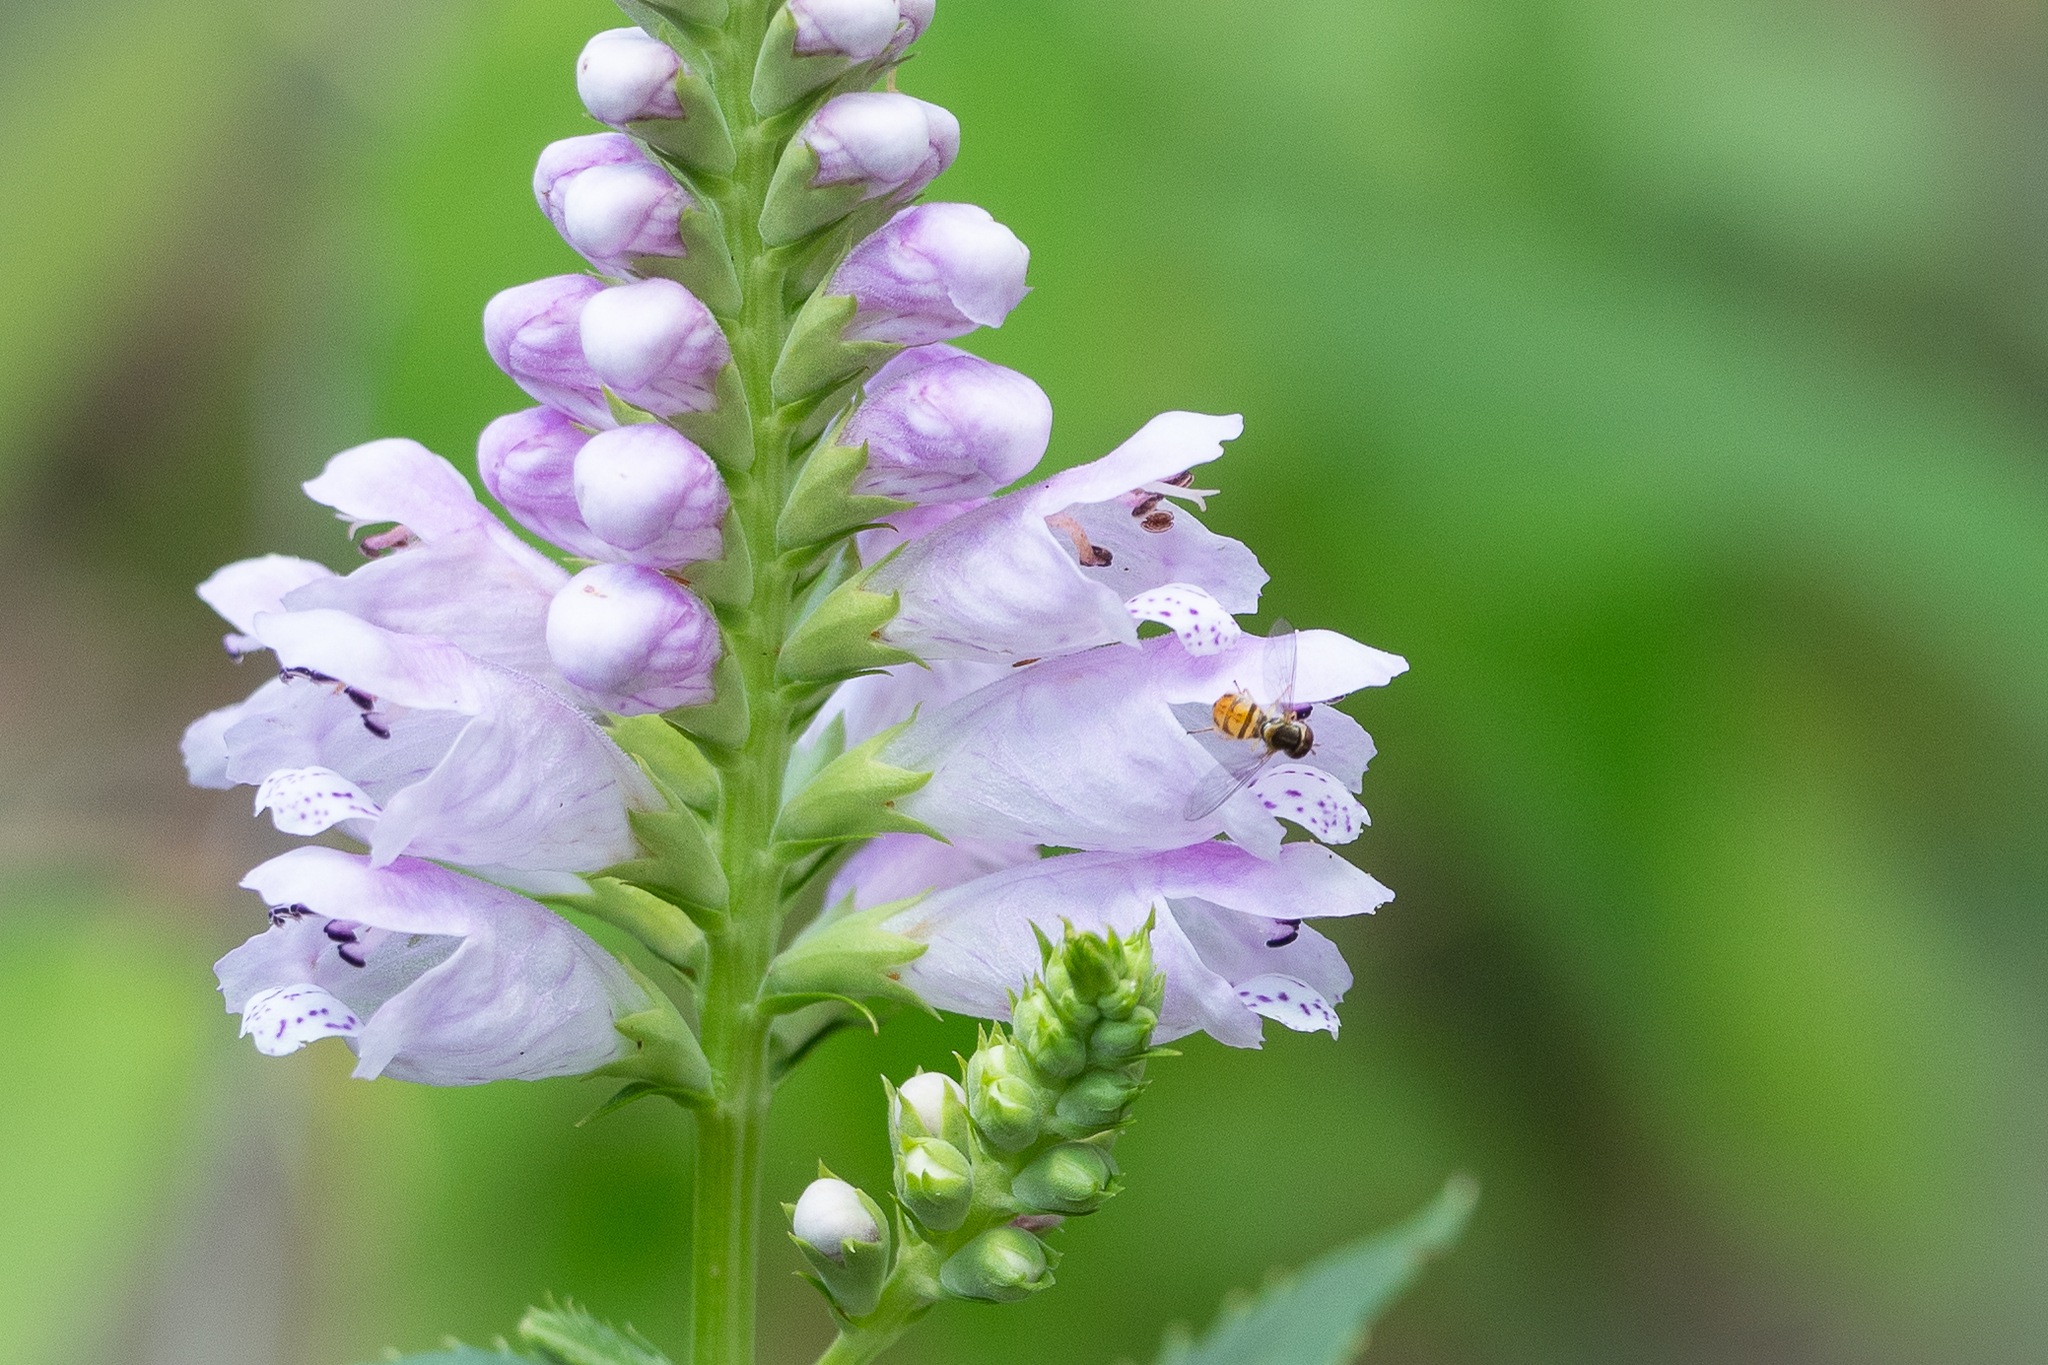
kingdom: Plantae
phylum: Tracheophyta
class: Magnoliopsida
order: Lamiales
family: Lamiaceae
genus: Physostegia
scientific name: Physostegia virginiana
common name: Obedient-plant
